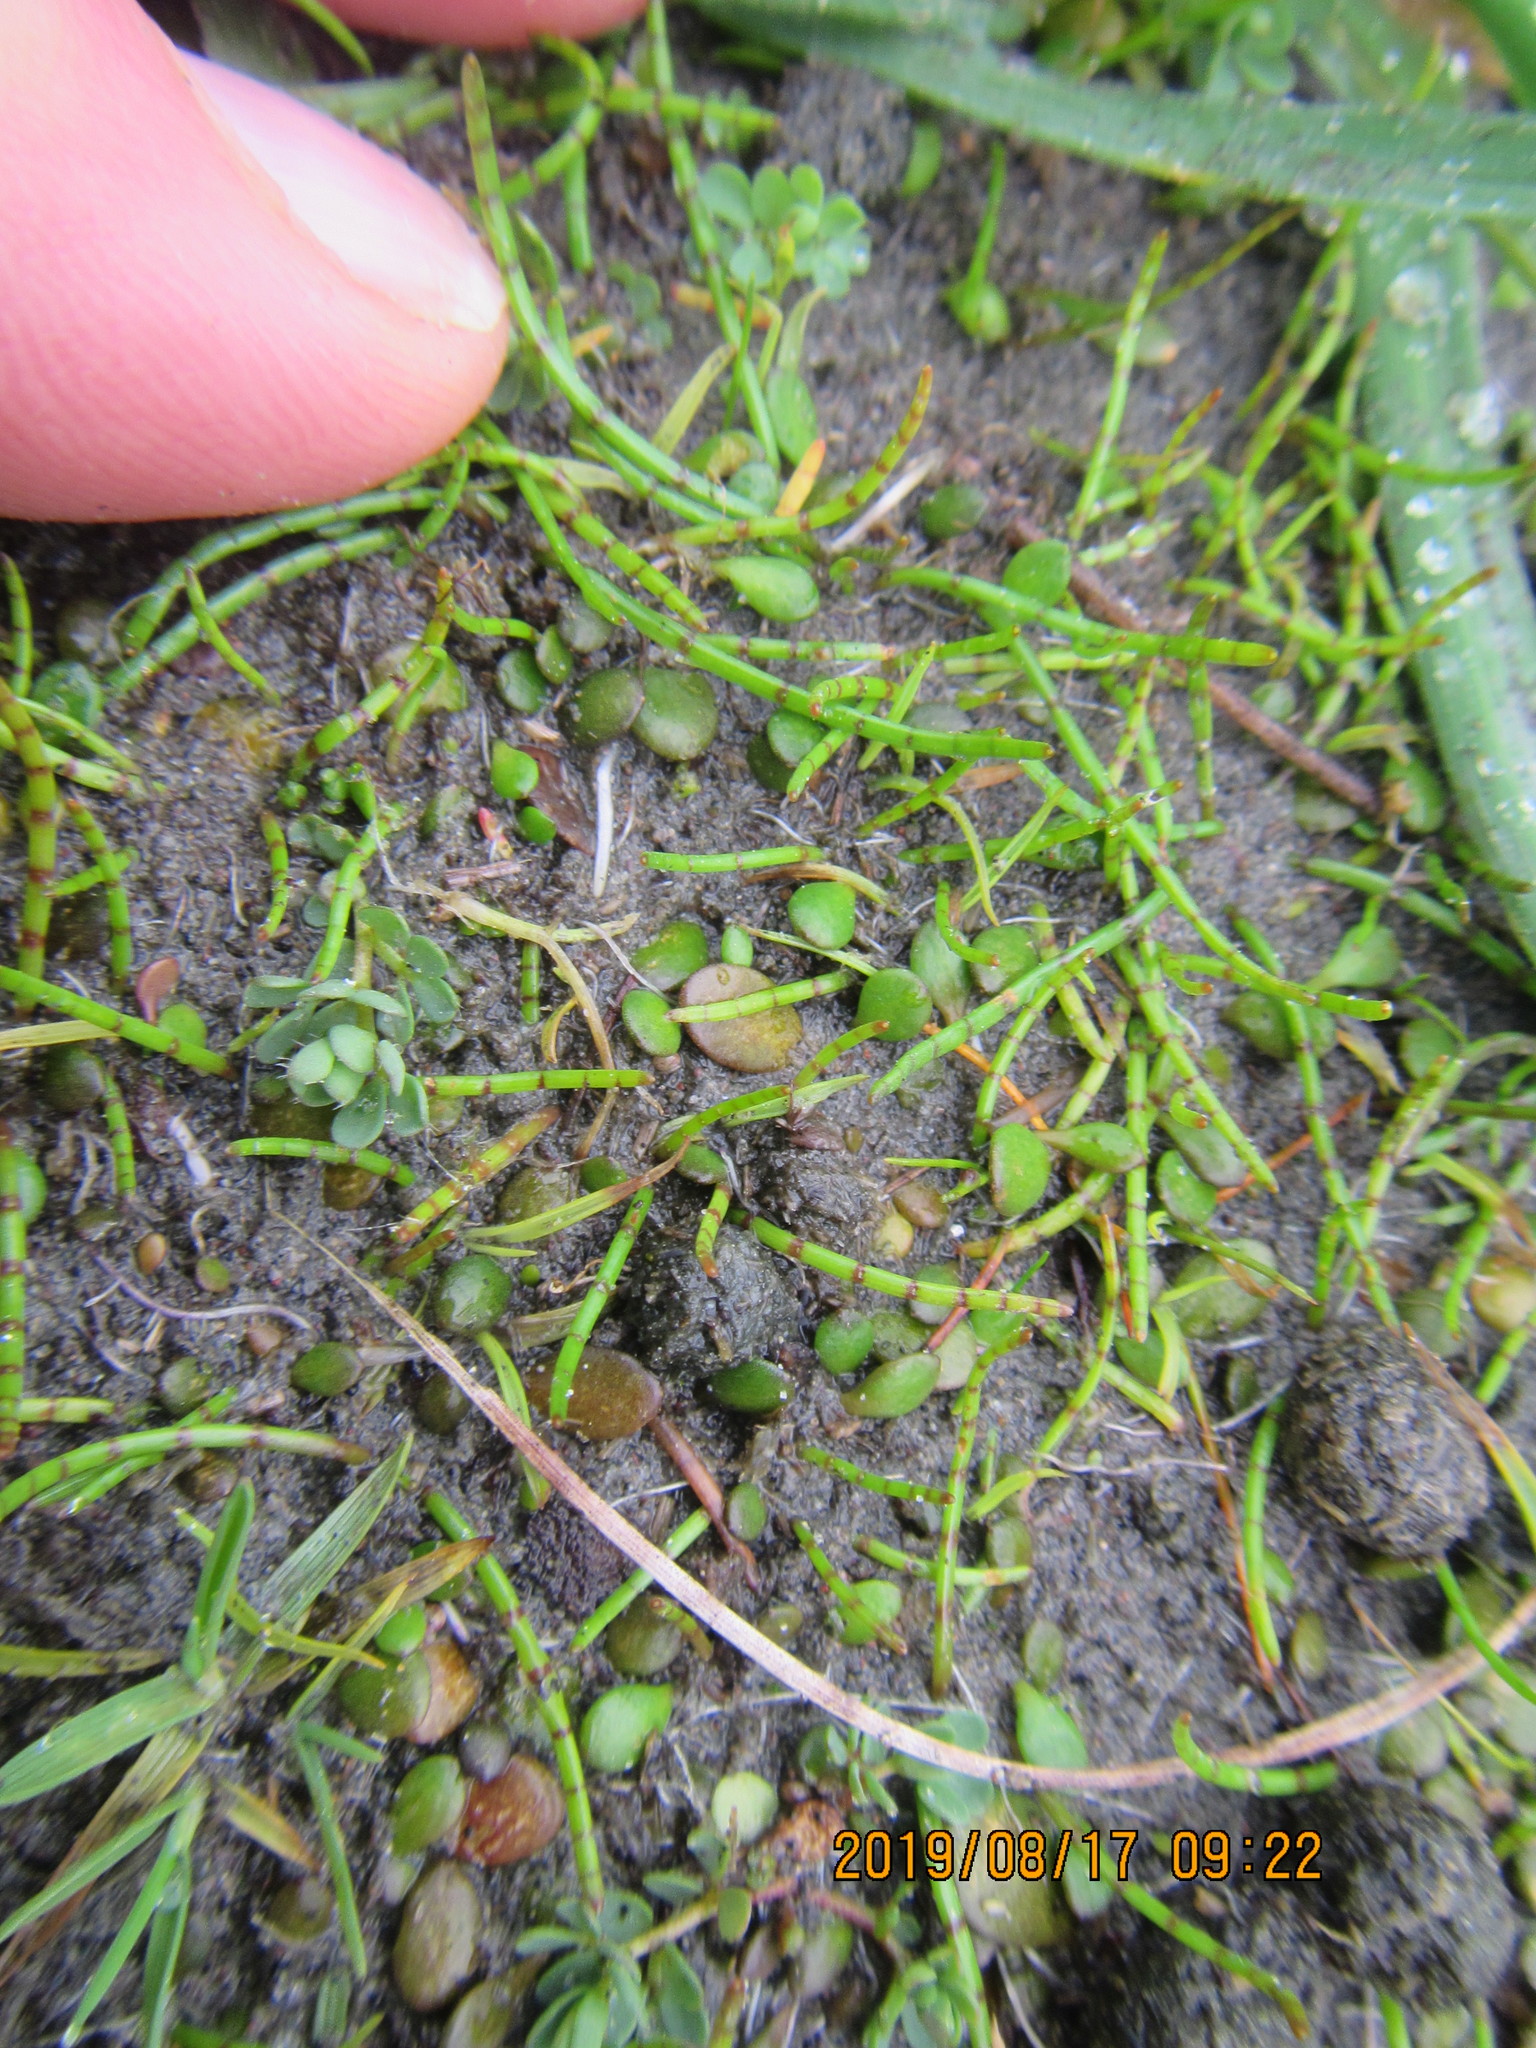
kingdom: Plantae
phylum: Tracheophyta
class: Magnoliopsida
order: Apiales
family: Apiaceae
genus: Lilaeopsis
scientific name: Lilaeopsis novae-zelandiae
